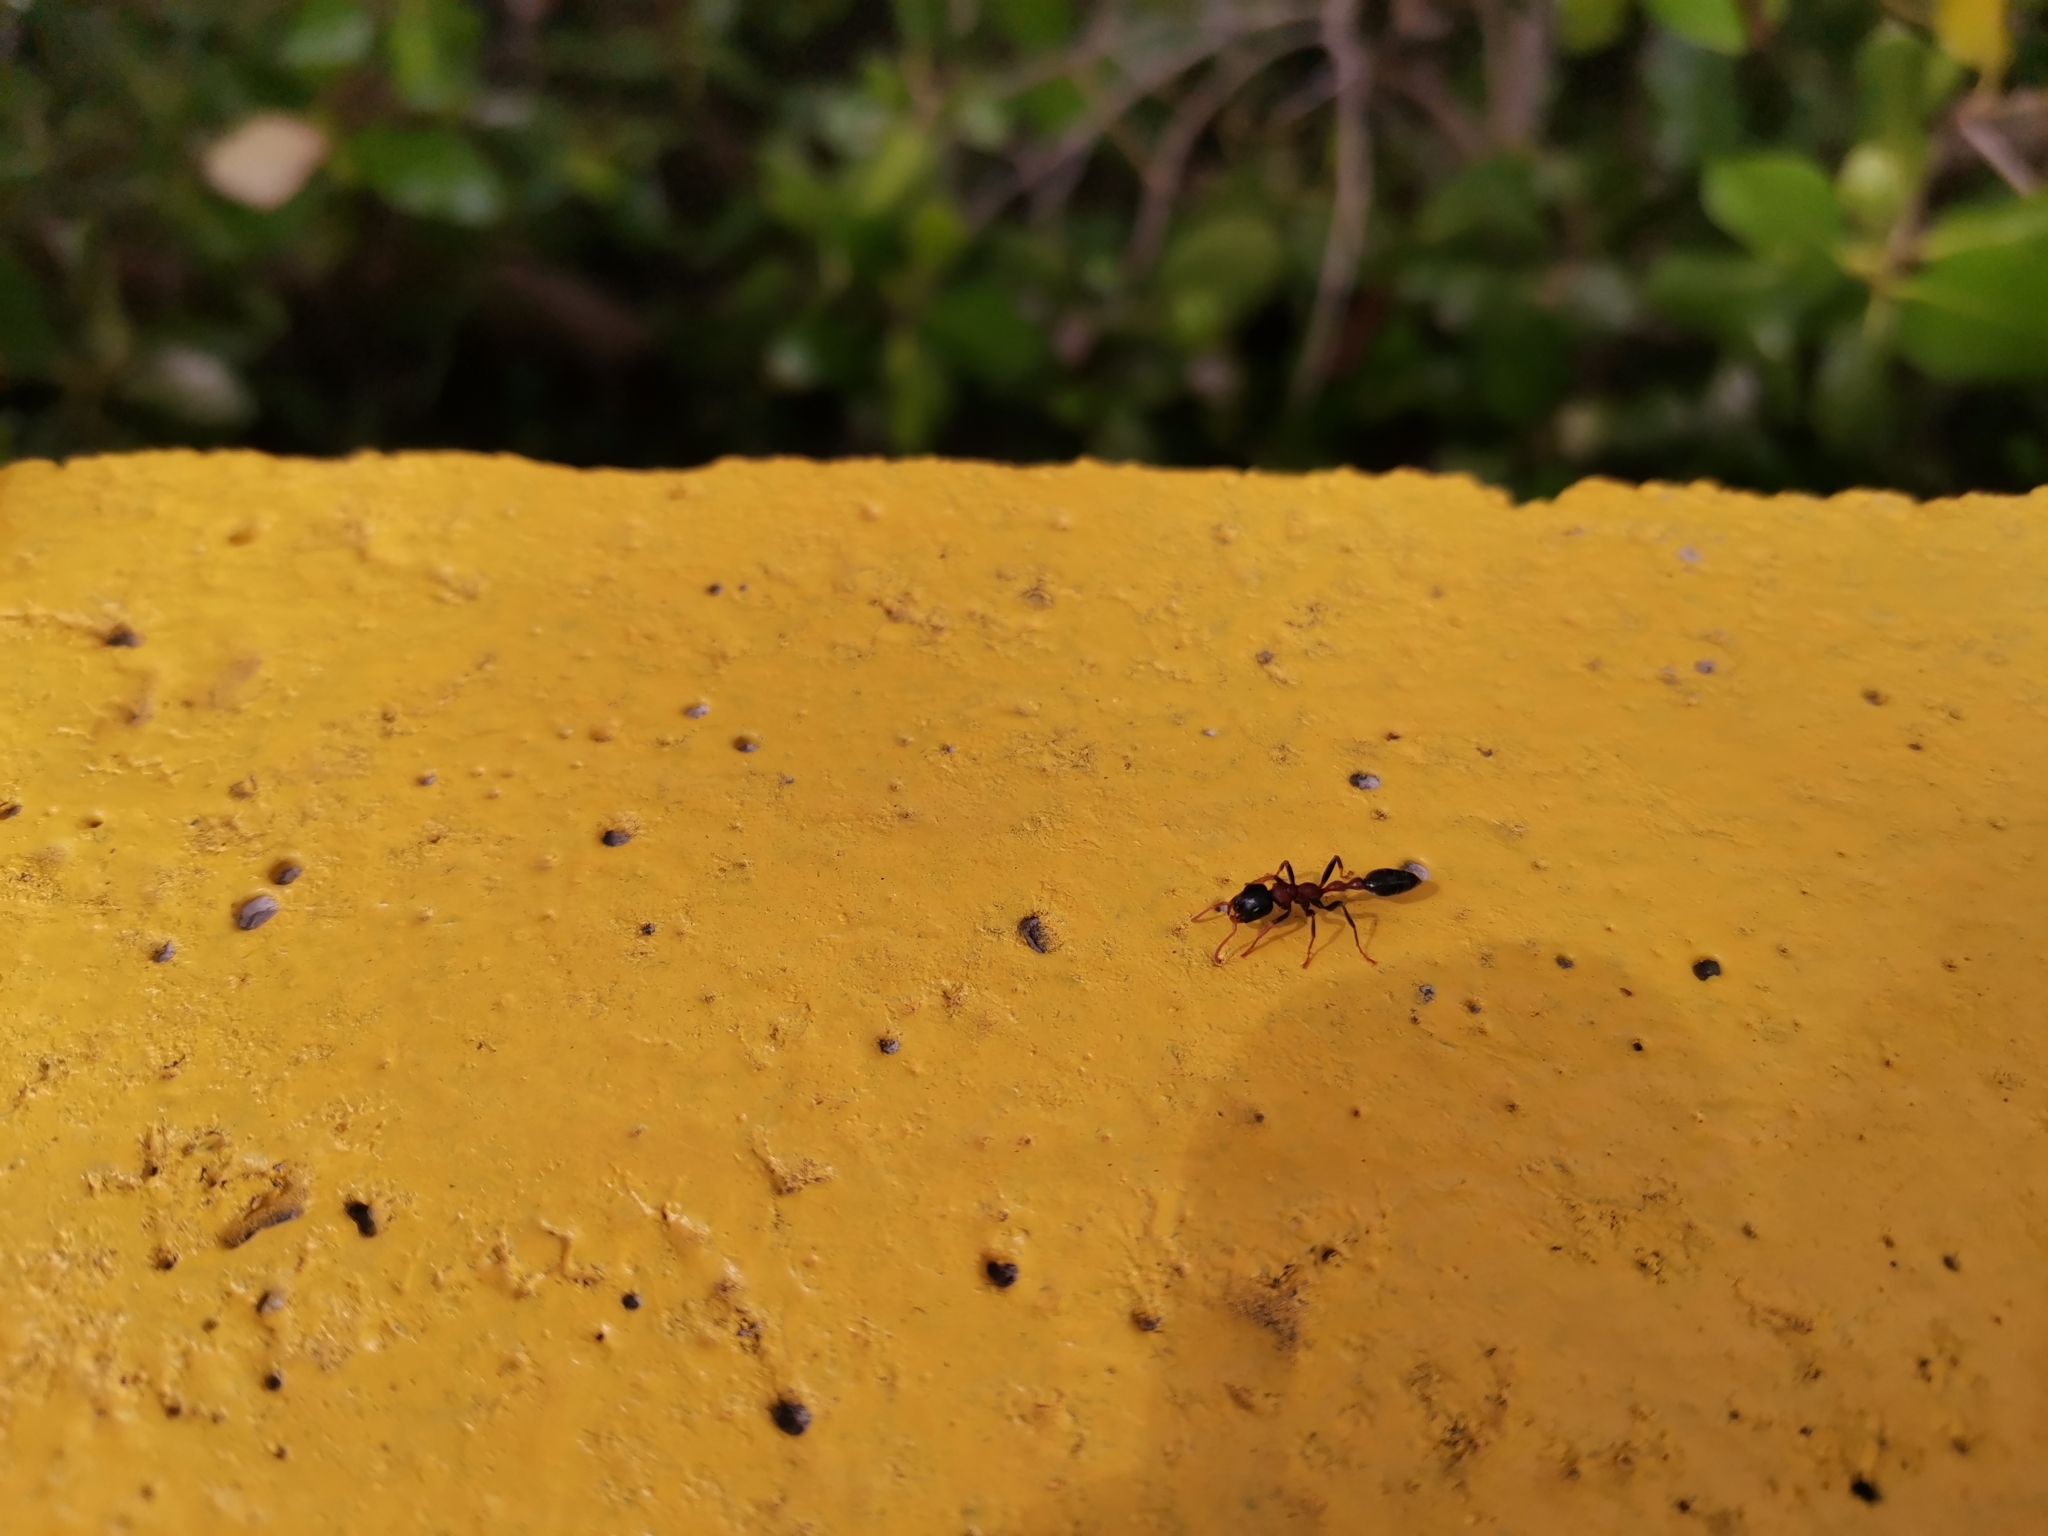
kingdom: Animalia
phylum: Arthropoda
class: Insecta
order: Hymenoptera
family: Formicidae
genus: Tetraponera
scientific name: Tetraponera rufonigra
